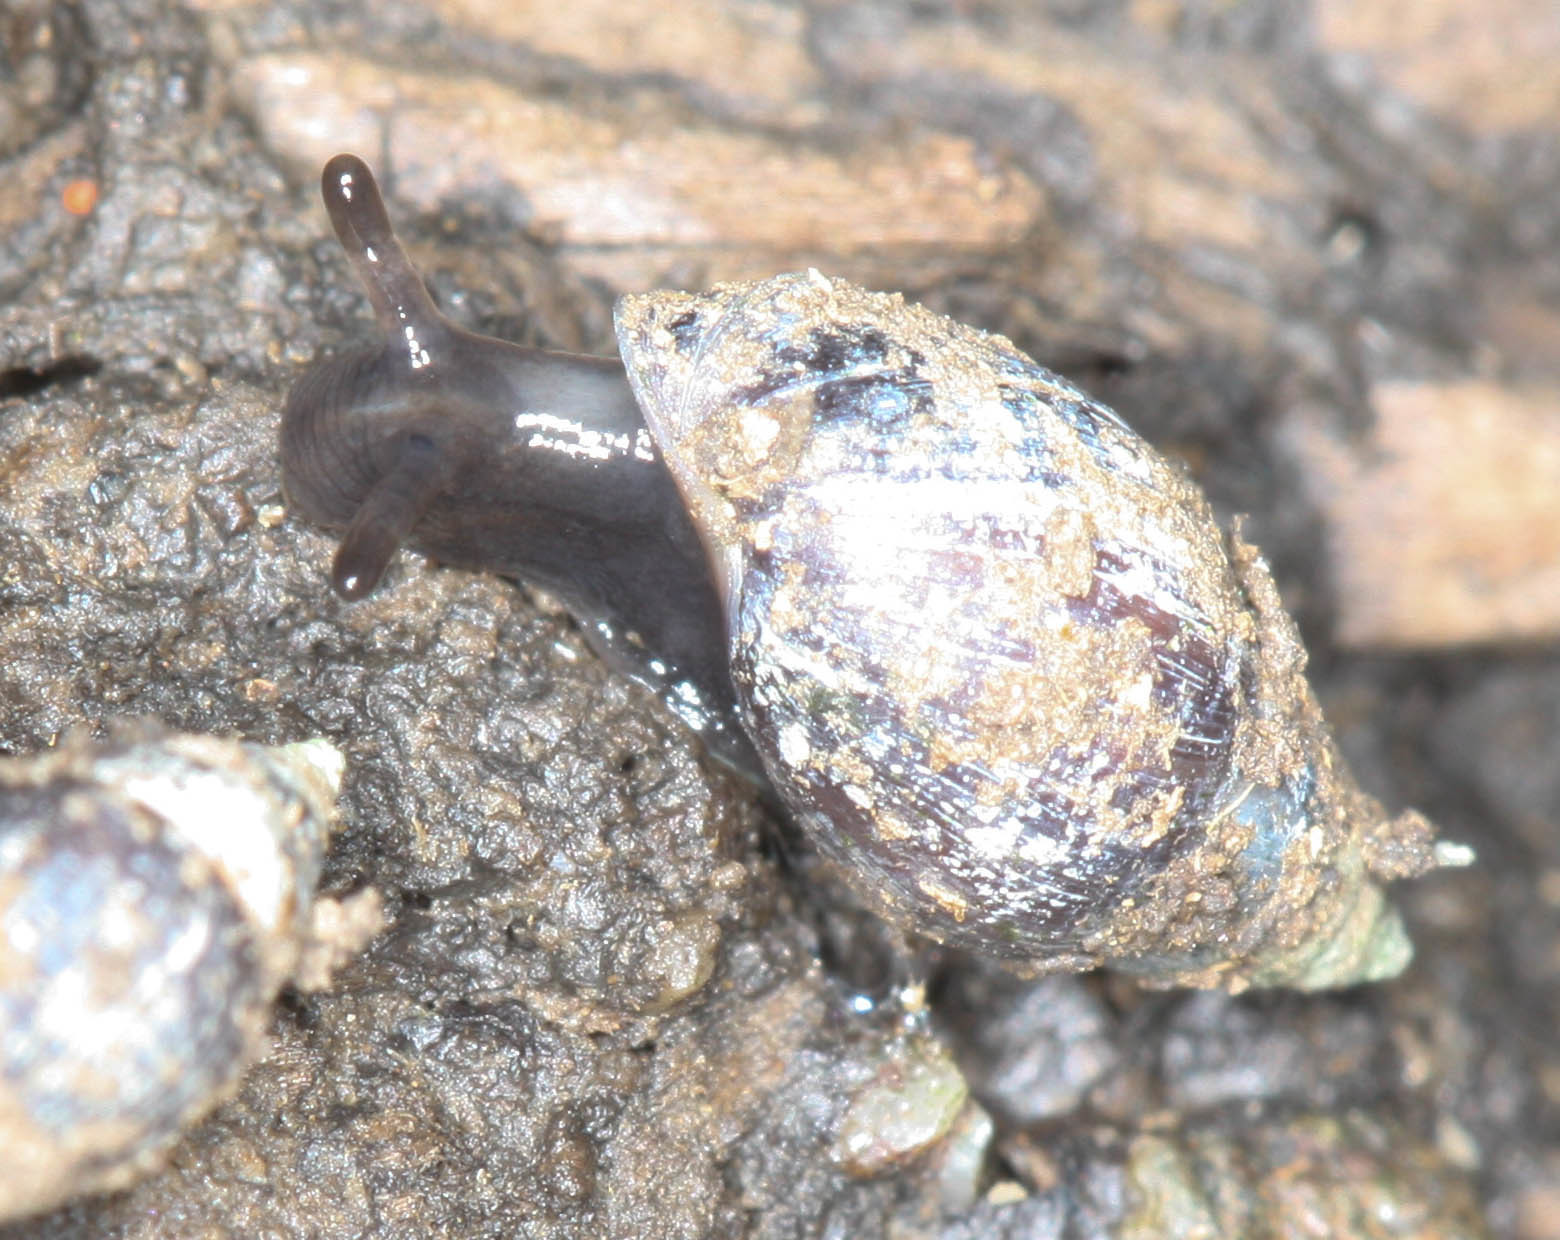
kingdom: Animalia
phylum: Mollusca
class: Gastropoda
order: Ellobiida
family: Ellobiidae
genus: Myosotella
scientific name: Myosotella myosotis
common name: Mouse-eared snail
